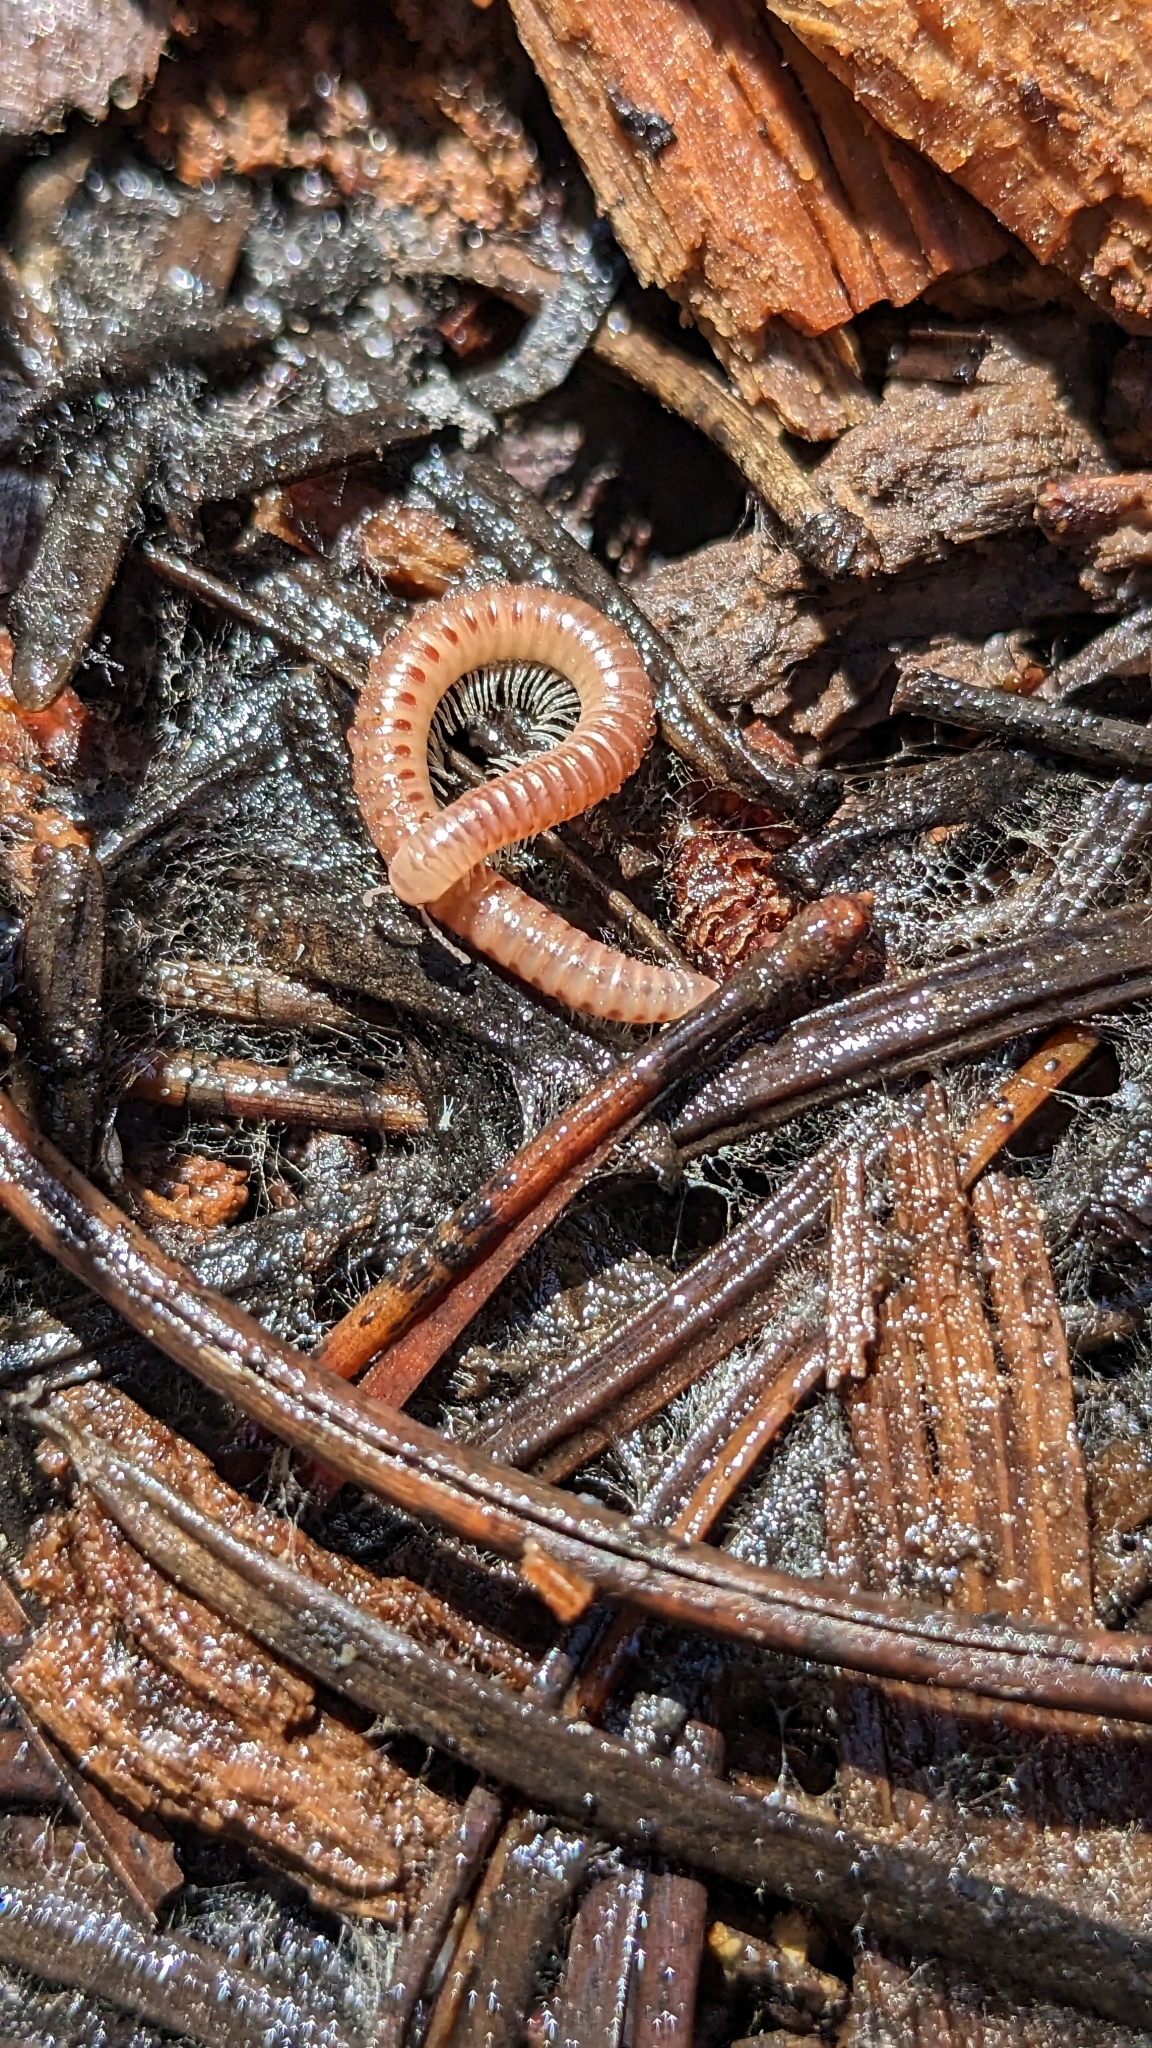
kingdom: Animalia
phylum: Arthropoda
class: Diplopoda
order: Julida
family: Blaniulidae
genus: Blaniulus
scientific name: Blaniulus guttulatus
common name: Spotted snake millipede
